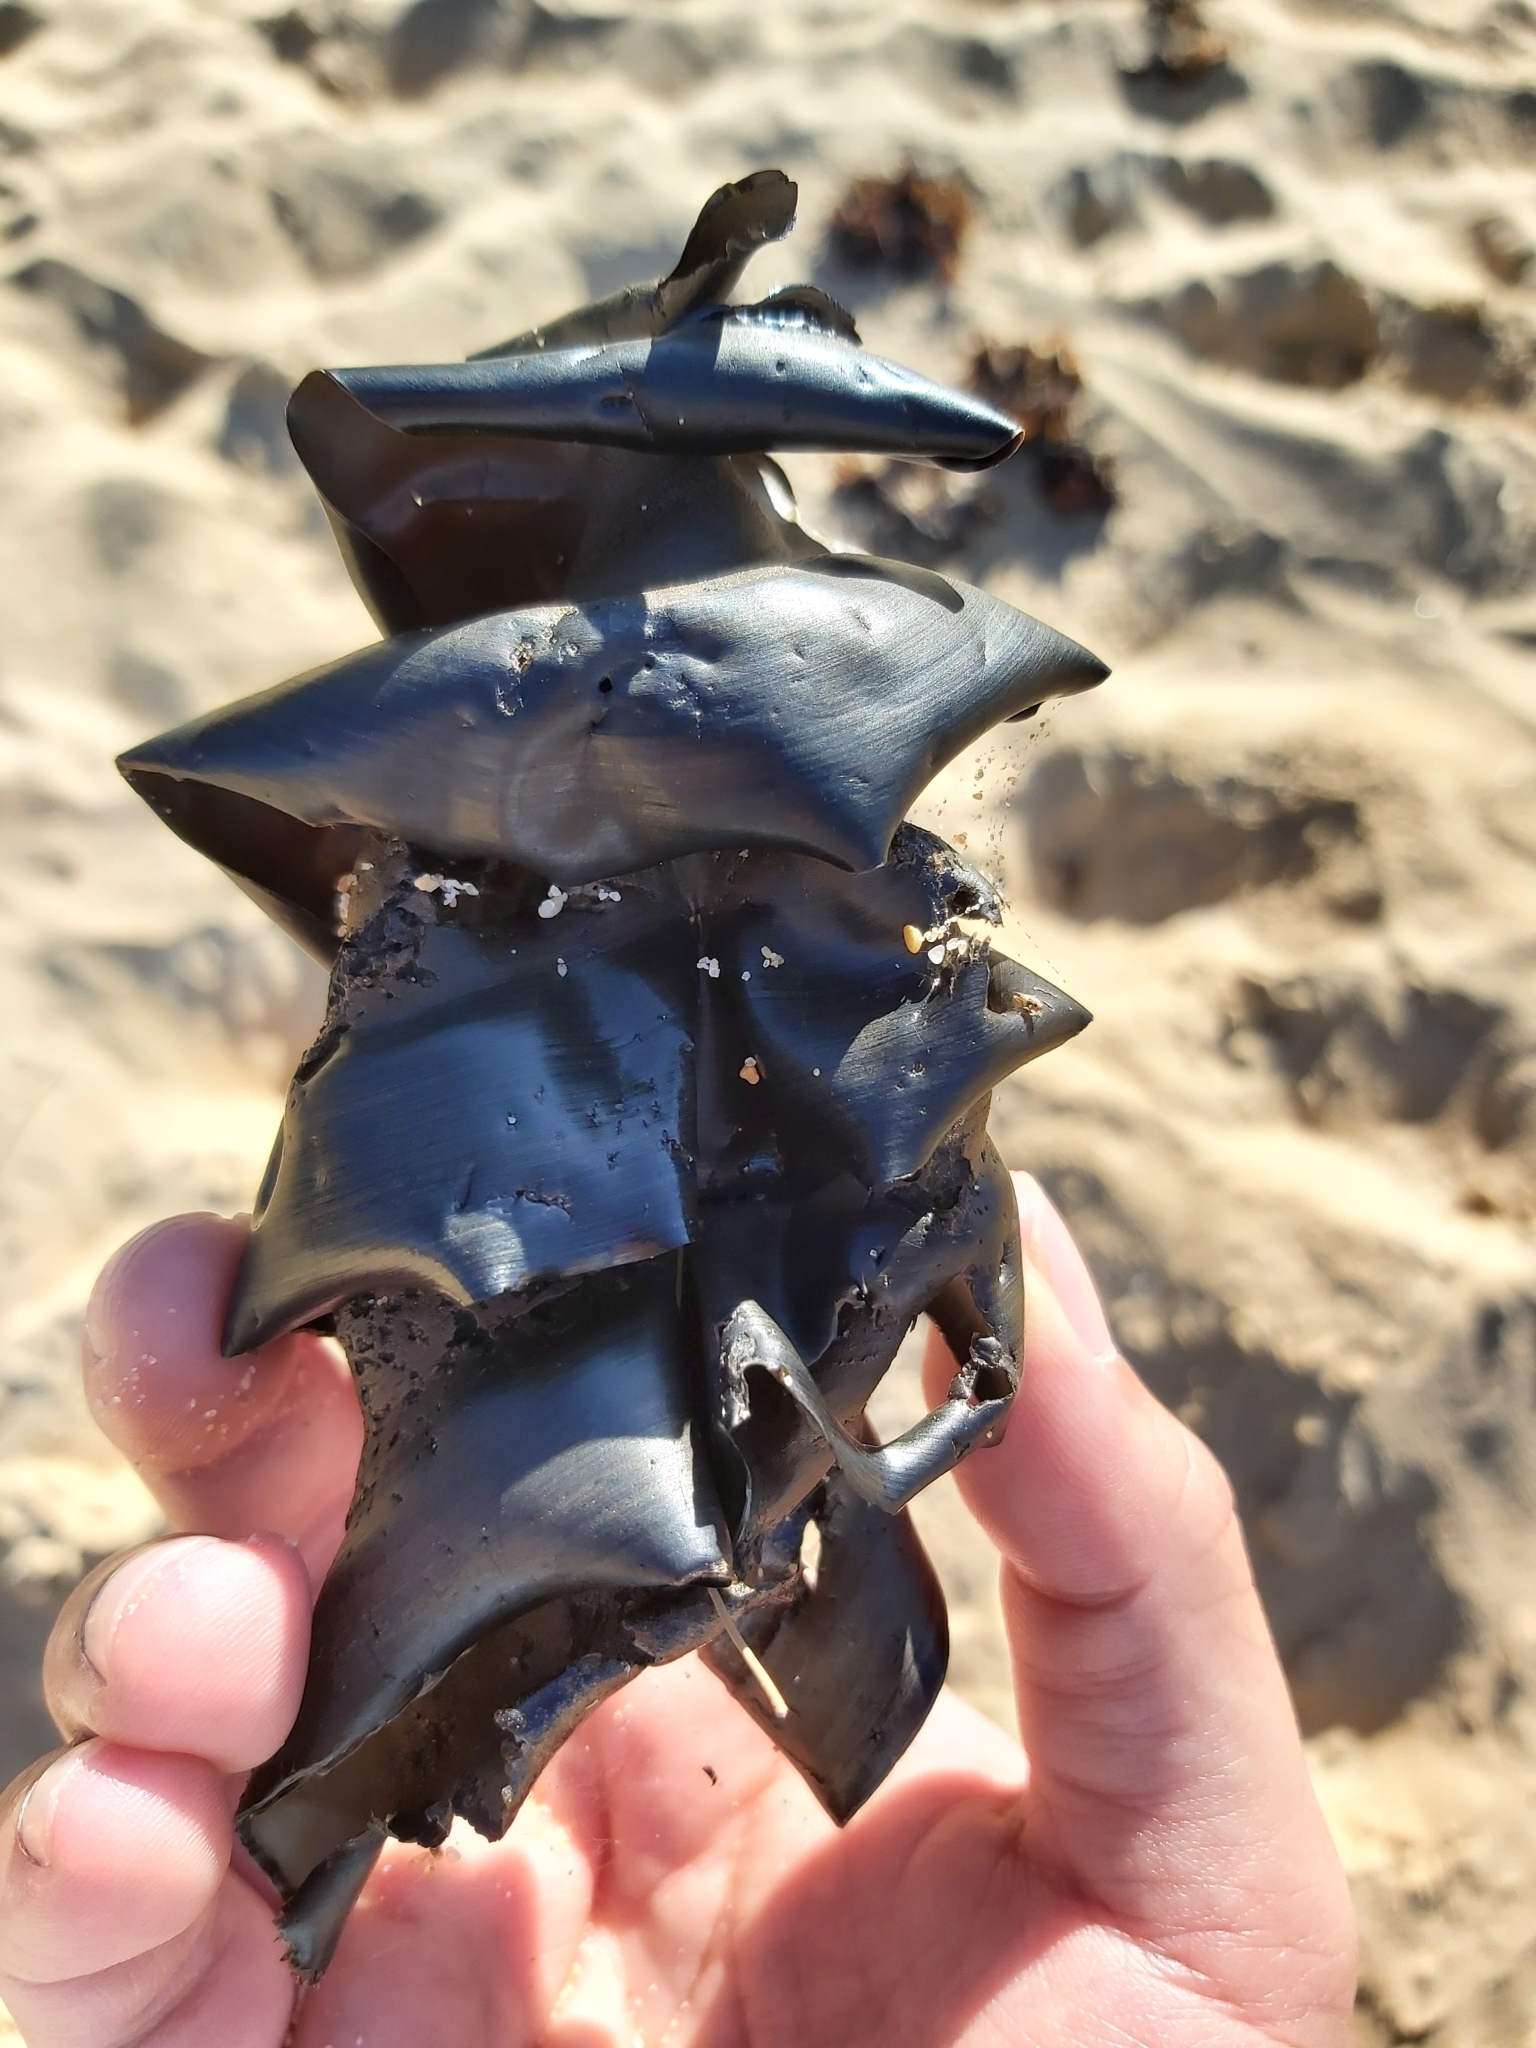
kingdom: Animalia
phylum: Chordata
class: Elasmobranchii
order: Heterodontiformes
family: Heterodontidae
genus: Heterodontus
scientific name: Heterodontus portusjacksoni
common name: Port jackson shark
